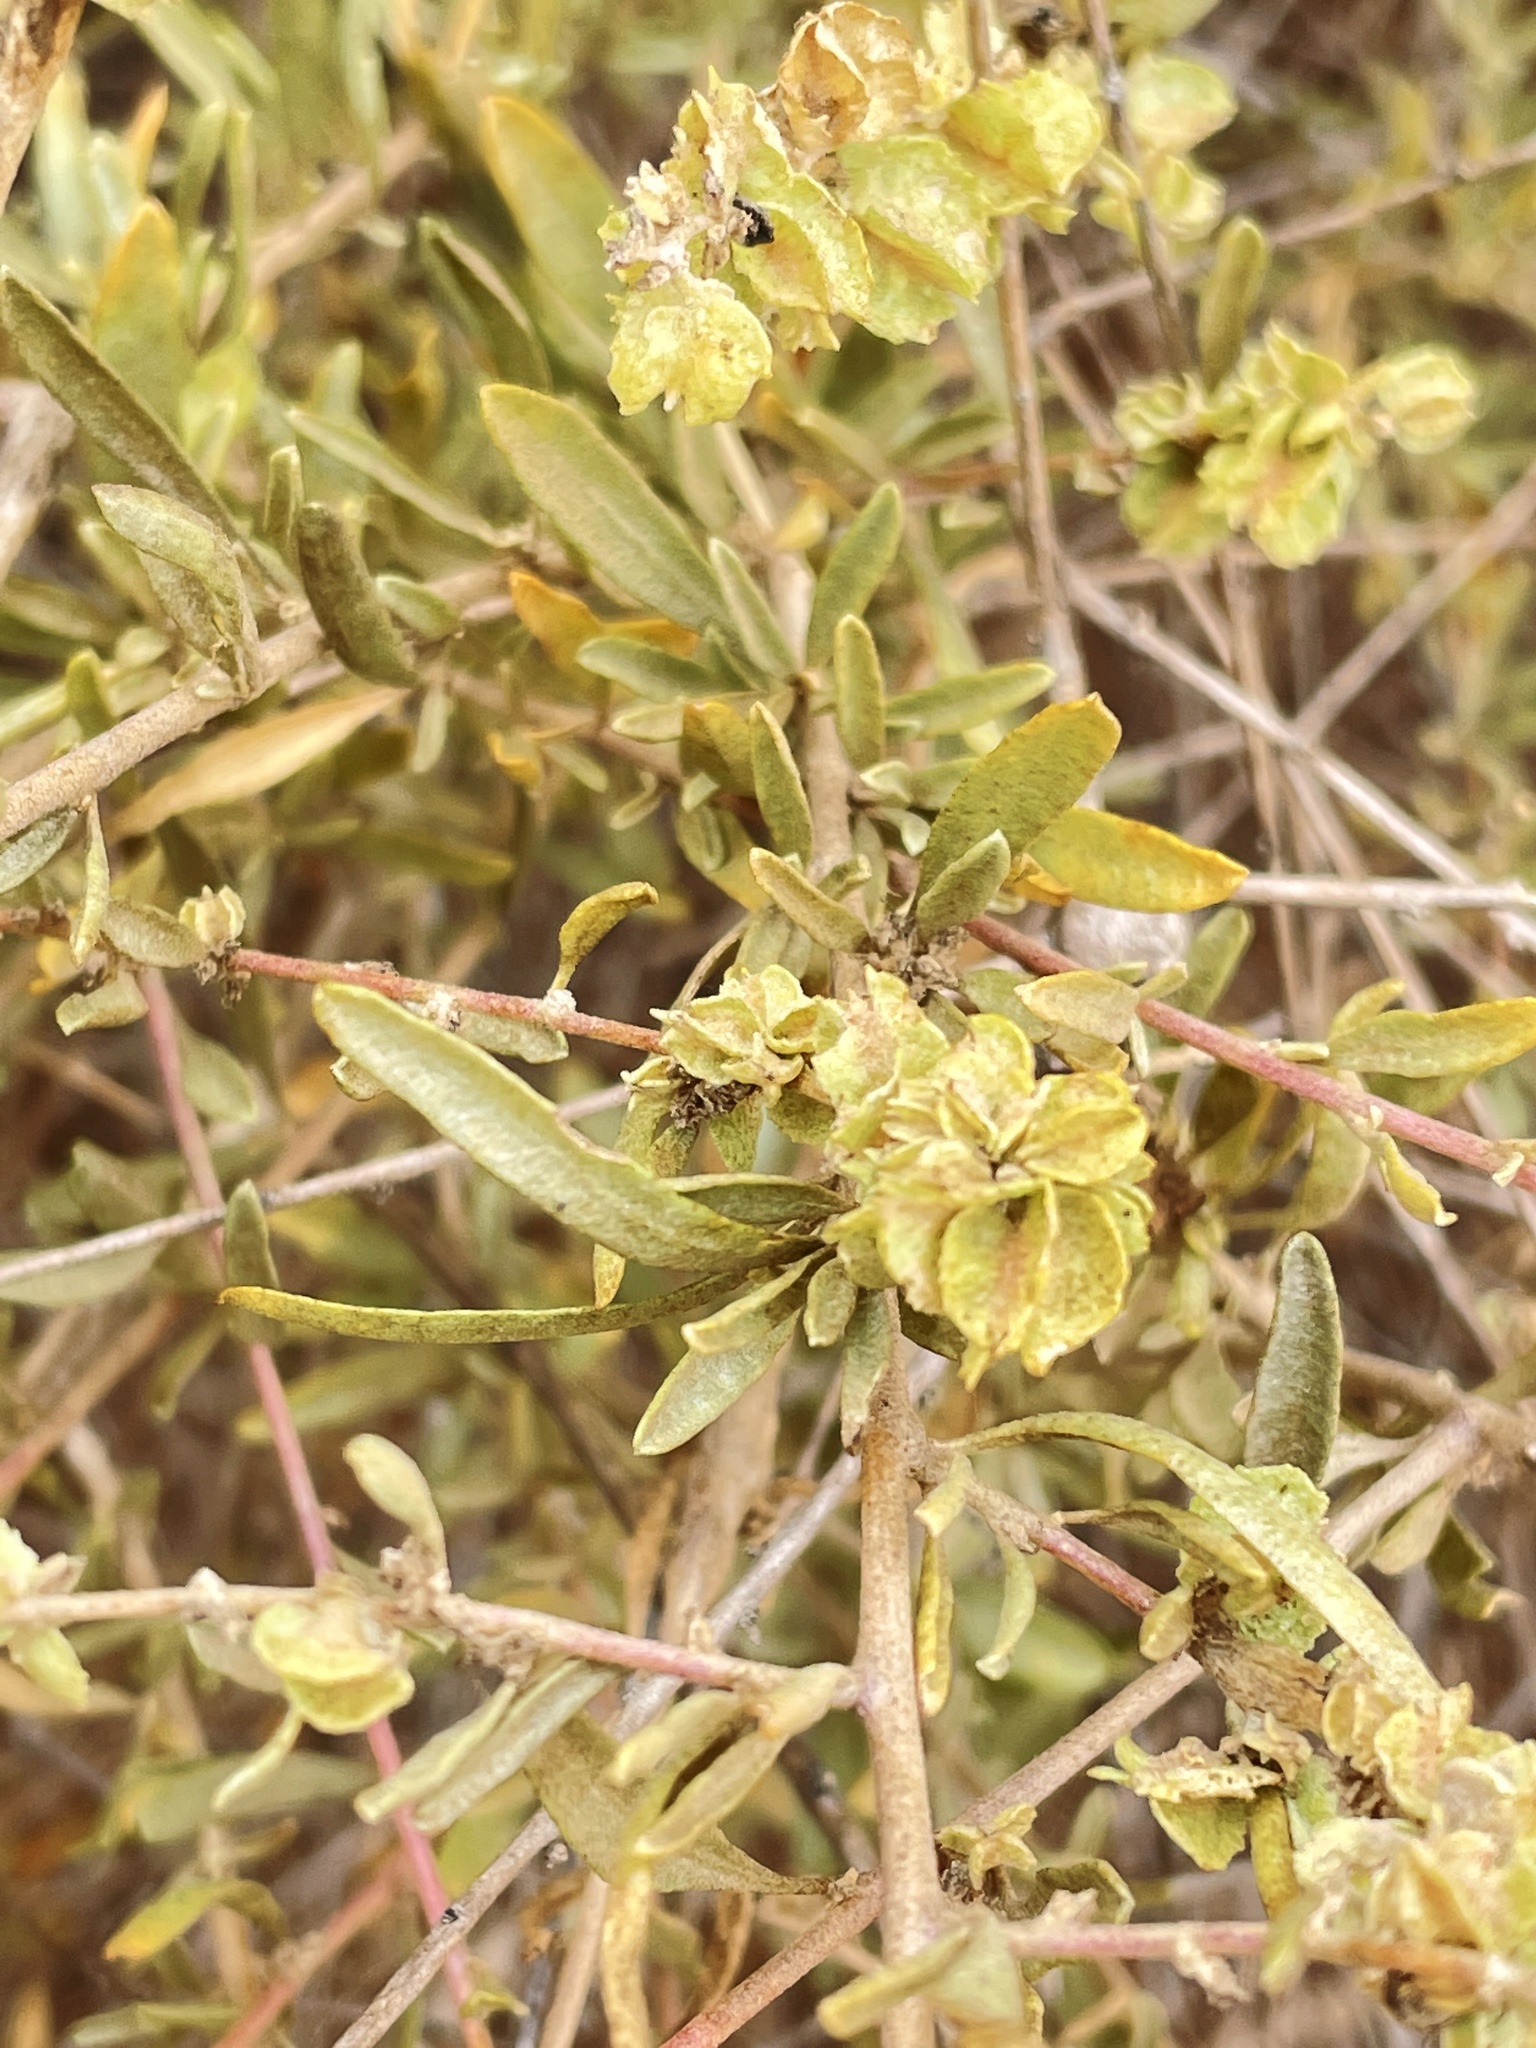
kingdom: Plantae
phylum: Tracheophyta
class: Magnoliopsida
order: Caryophyllales
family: Amaranthaceae
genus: Atriplex
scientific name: Atriplex canescens
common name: Four-wing saltbush
